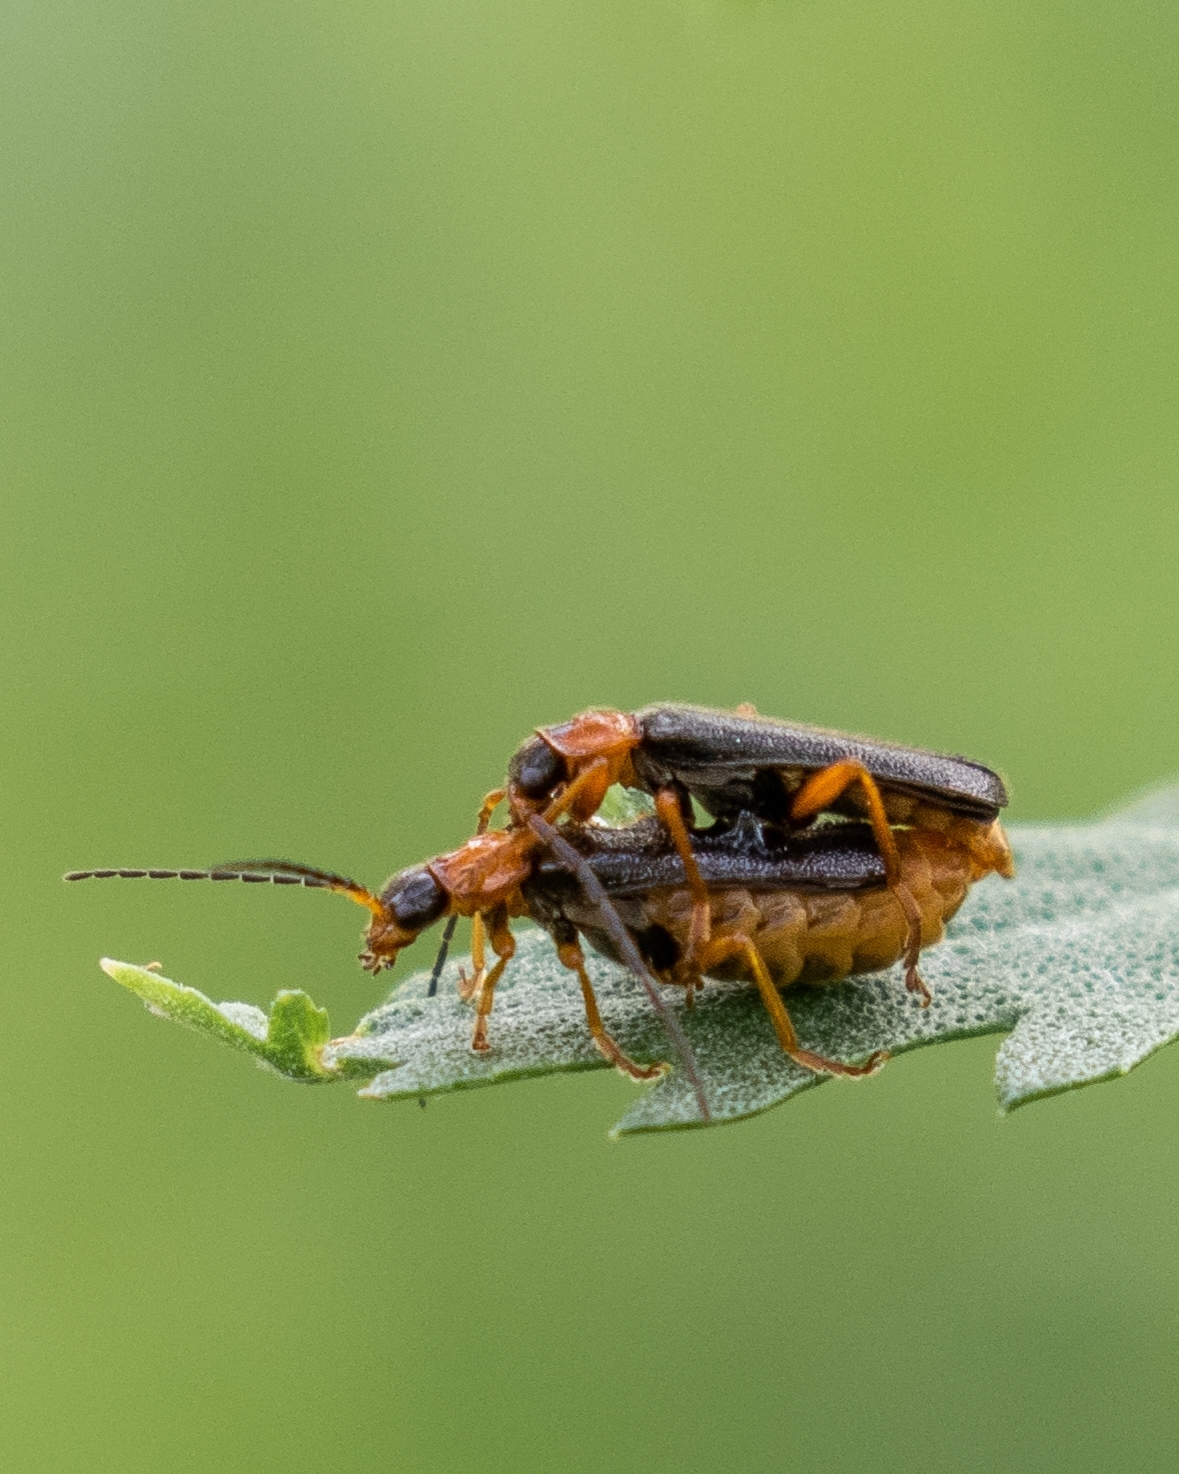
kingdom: Animalia
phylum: Arthropoda
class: Insecta
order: Coleoptera
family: Cantharidae
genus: Cantharis
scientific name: Cantharis flavilabris
